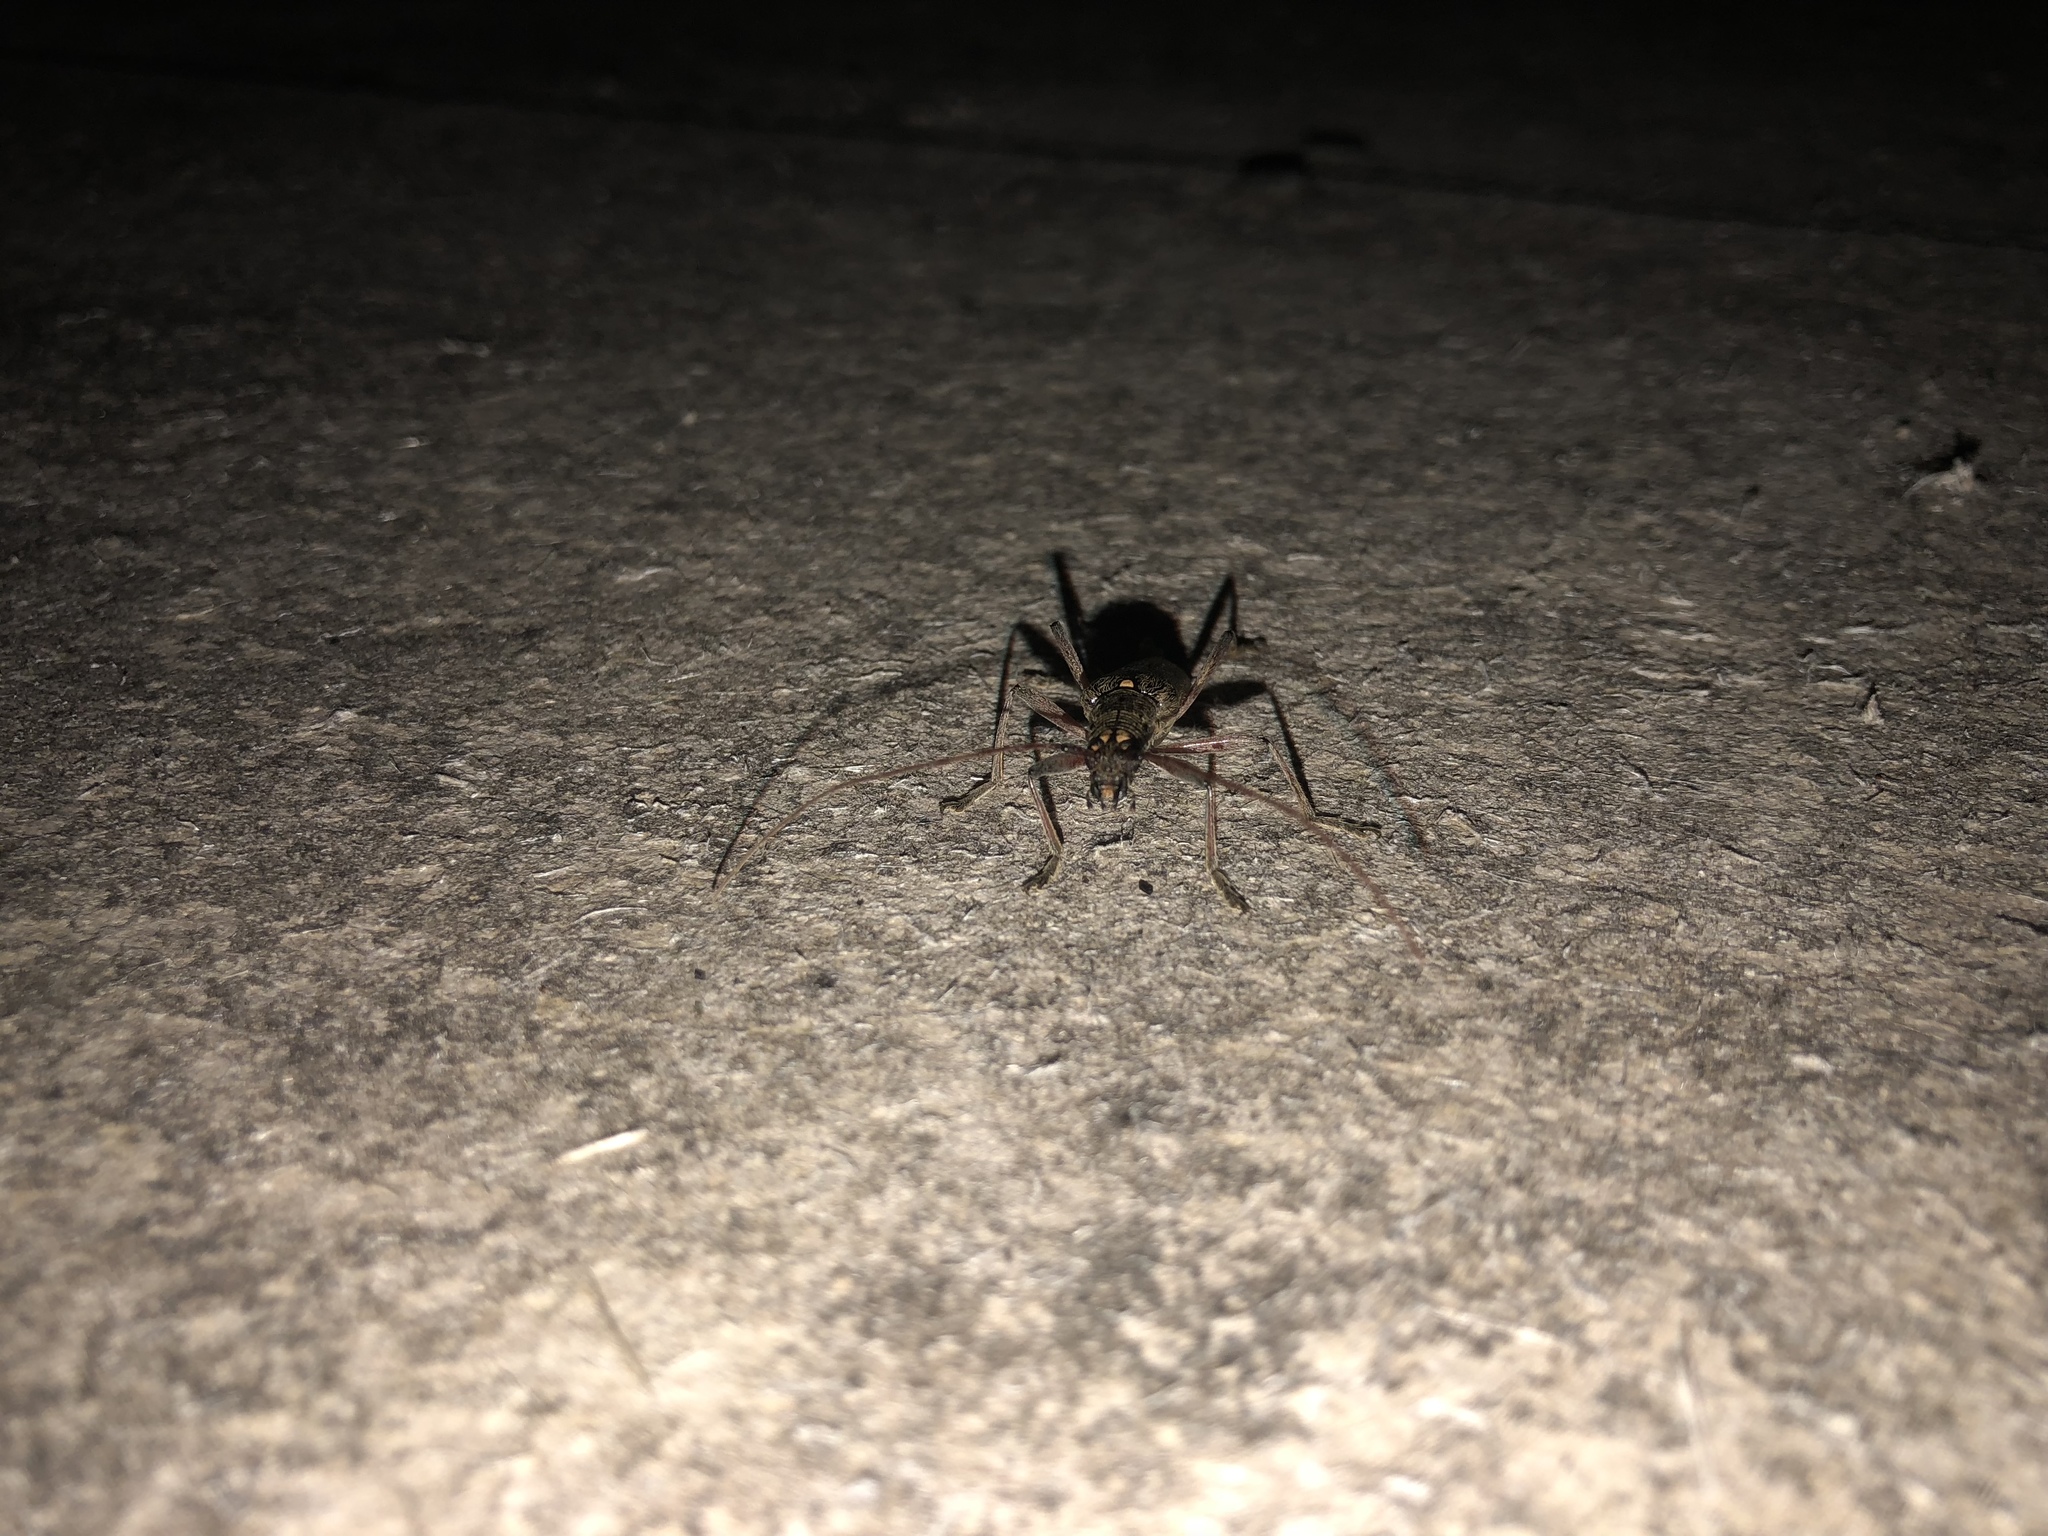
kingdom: Animalia
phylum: Arthropoda
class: Insecta
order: Coleoptera
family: Cerambycidae
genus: Oemona
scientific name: Oemona hirta
